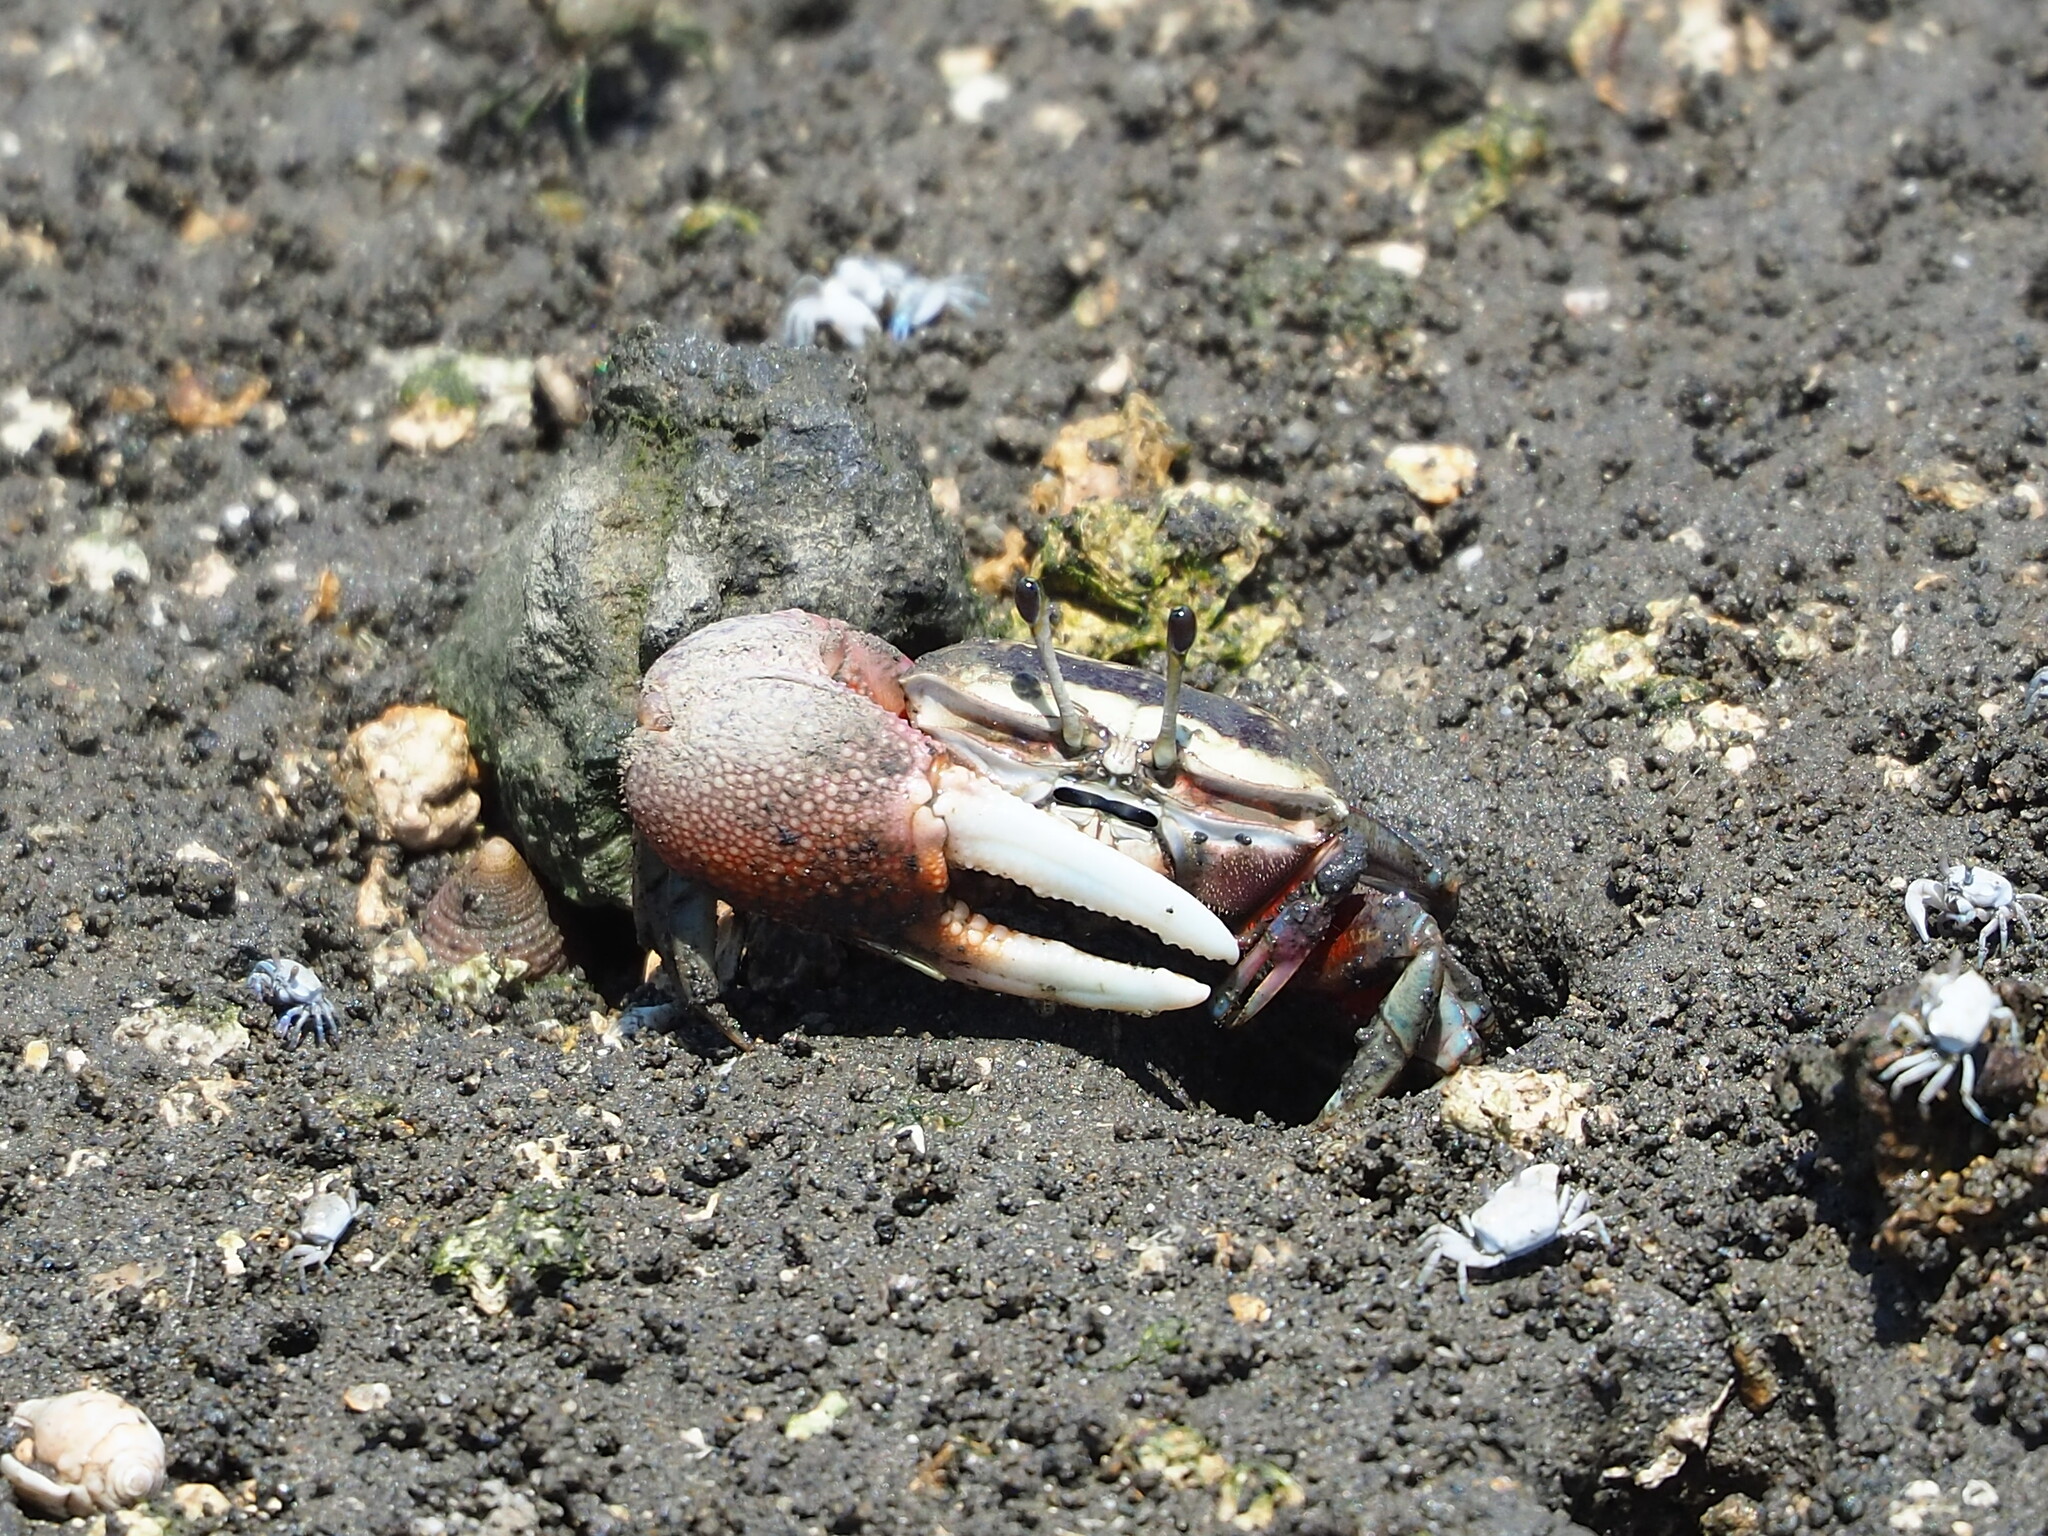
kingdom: Animalia
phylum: Arthropoda
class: Malacostraca
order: Decapoda
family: Ocypodidae
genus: Tubuca
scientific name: Tubuca arcuata
